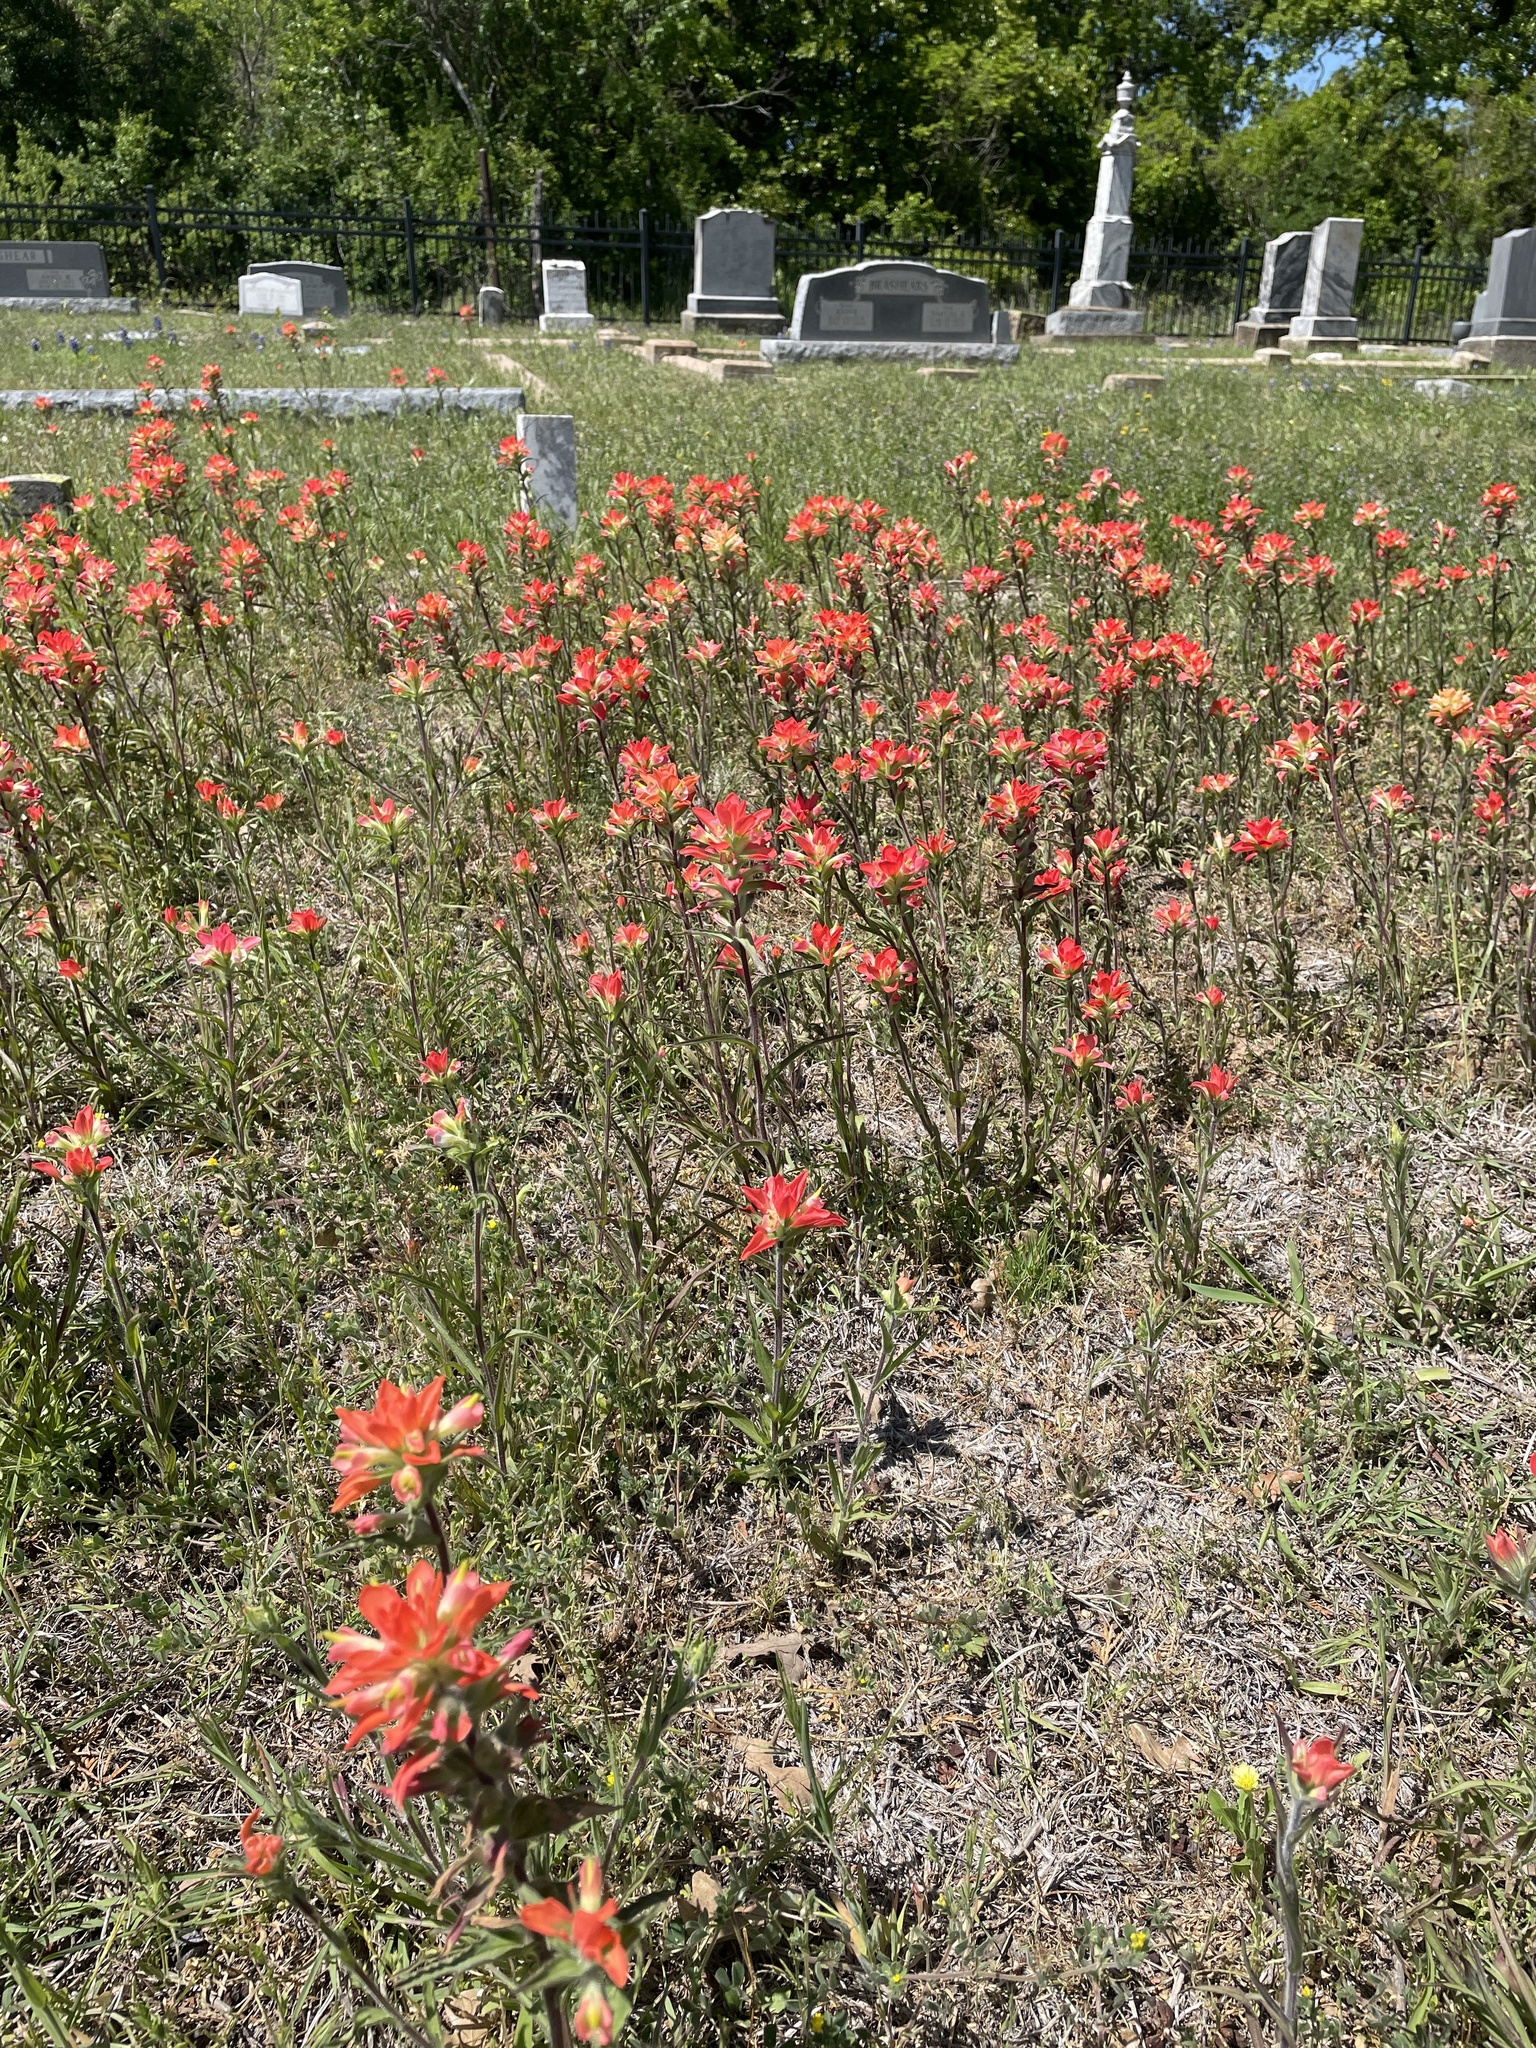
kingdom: Plantae
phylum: Tracheophyta
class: Magnoliopsida
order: Lamiales
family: Orobanchaceae
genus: Castilleja
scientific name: Castilleja indivisa
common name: Texas paintbrush
